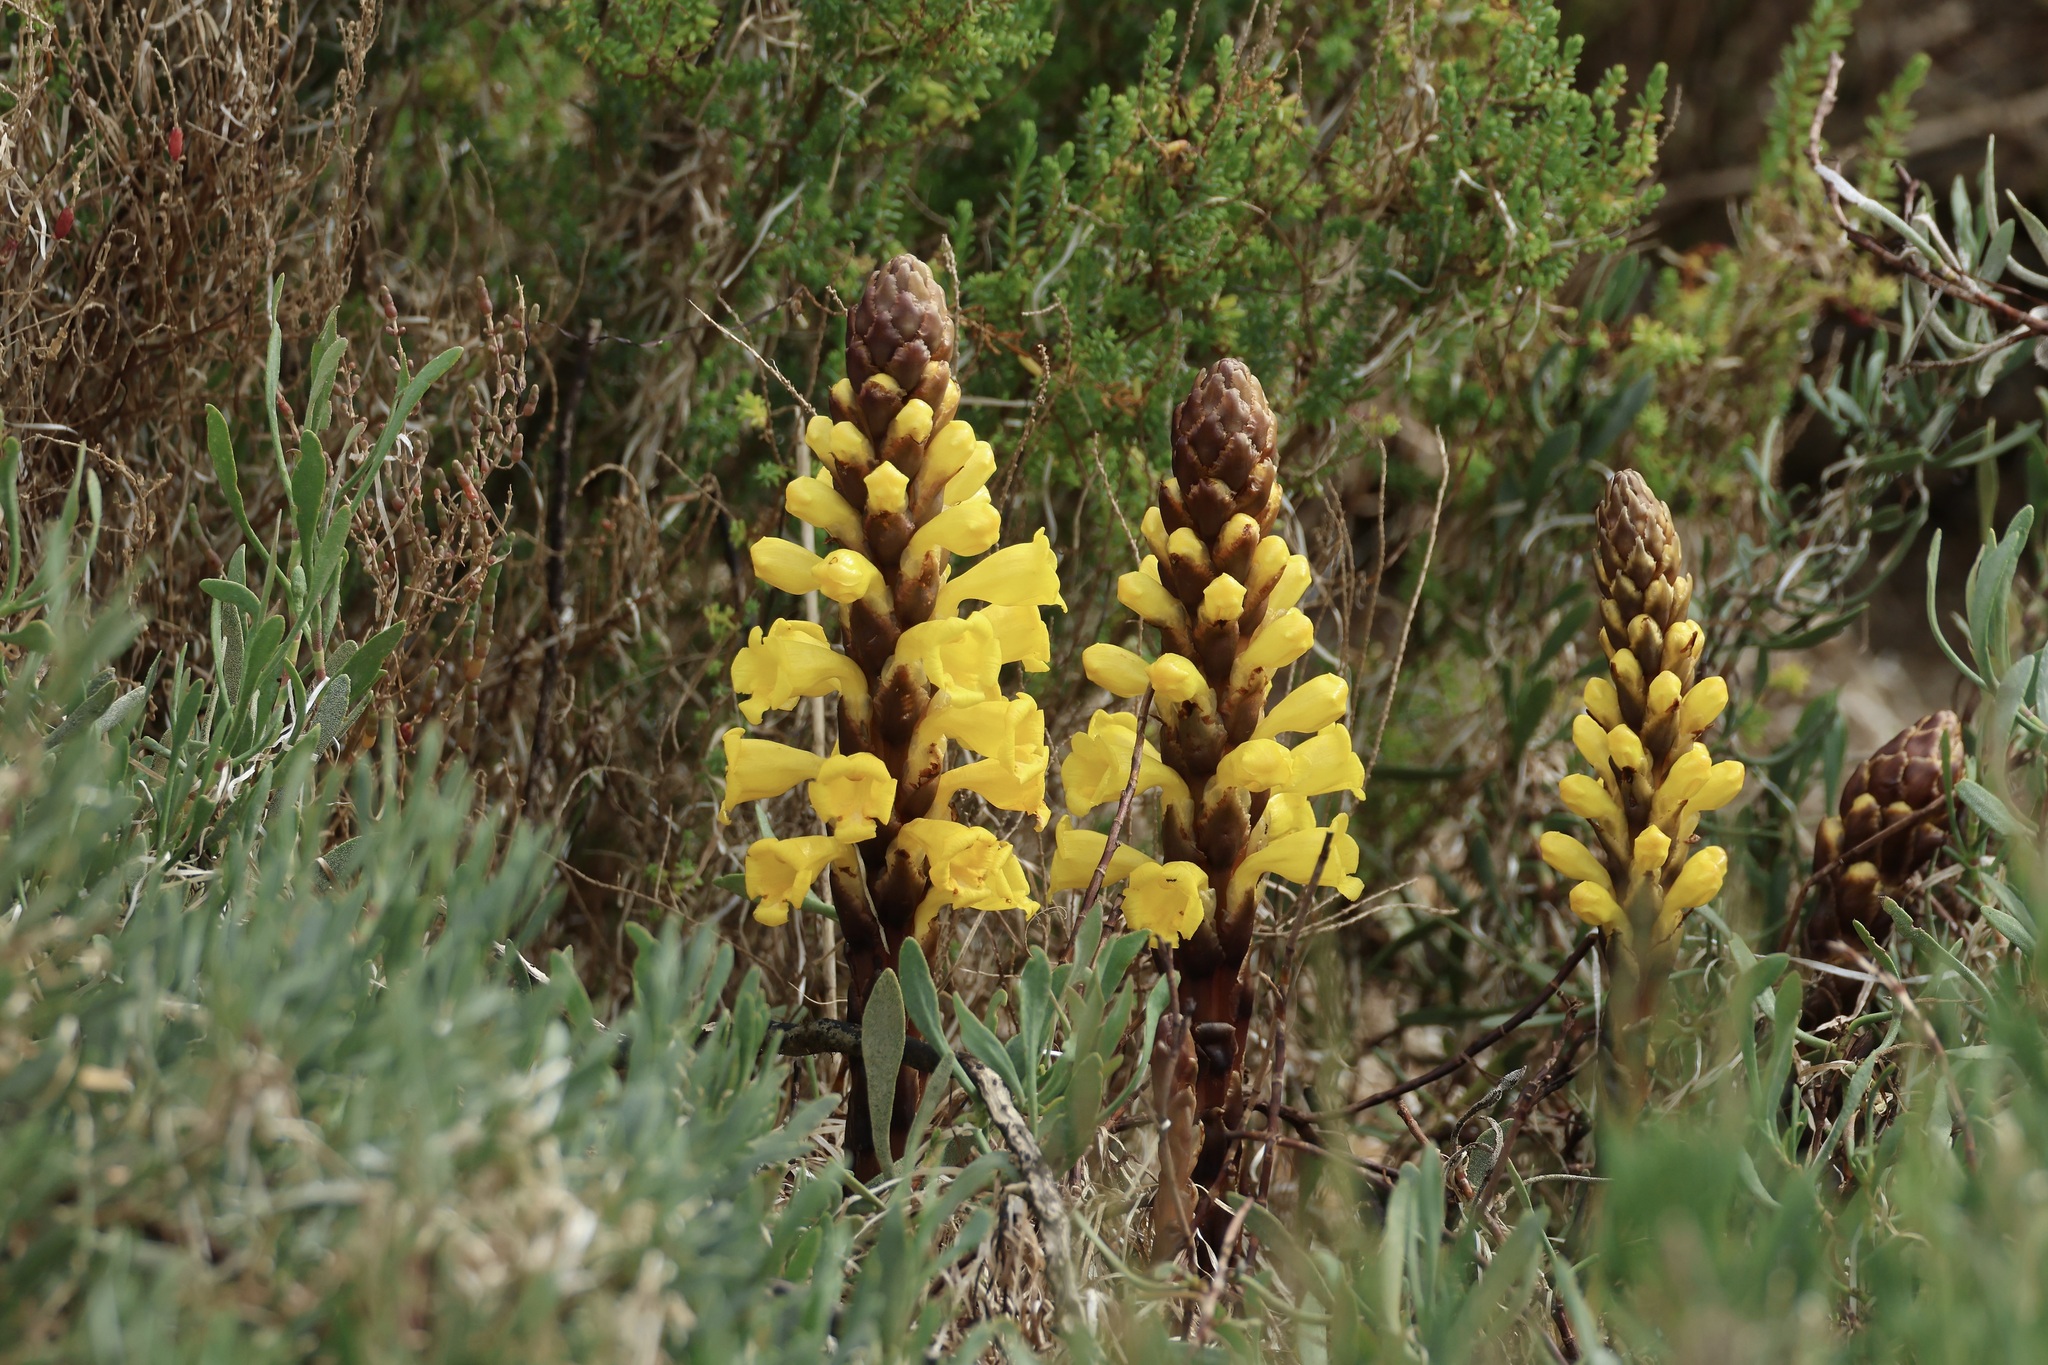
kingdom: Plantae
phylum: Tracheophyta
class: Magnoliopsida
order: Lamiales
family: Orobanchaceae
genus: Cistanche
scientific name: Cistanche phelypaea
